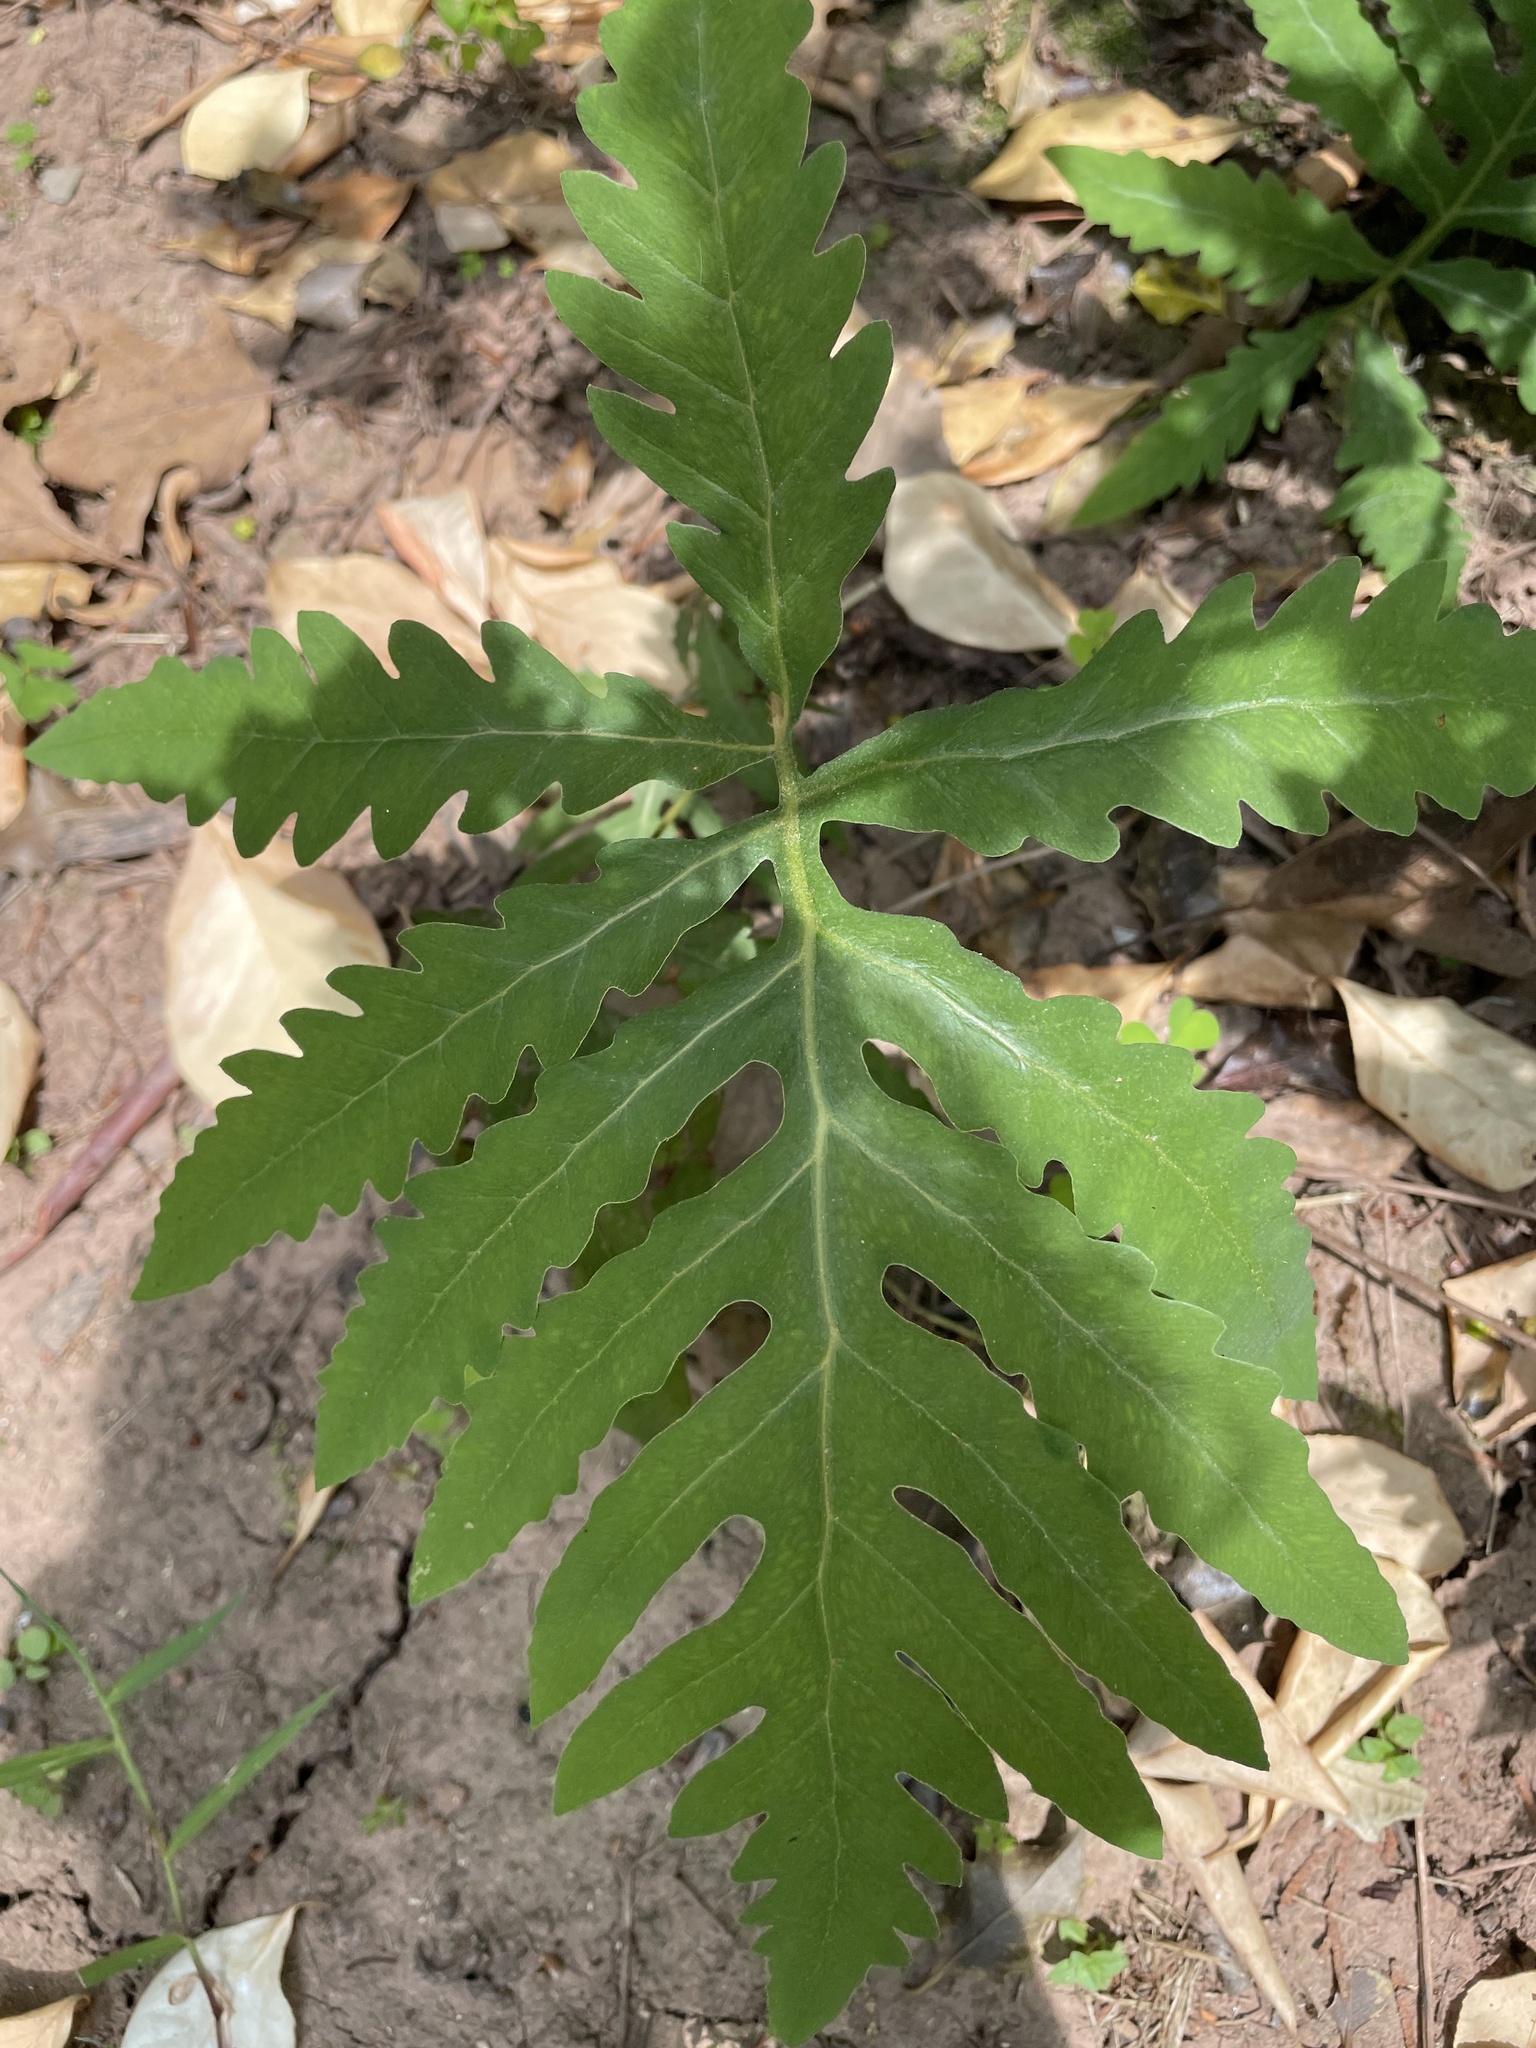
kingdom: Plantae
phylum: Tracheophyta
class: Polypodiopsida
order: Polypodiales
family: Onocleaceae
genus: Onoclea
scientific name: Onoclea sensibilis
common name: Sensitive fern
